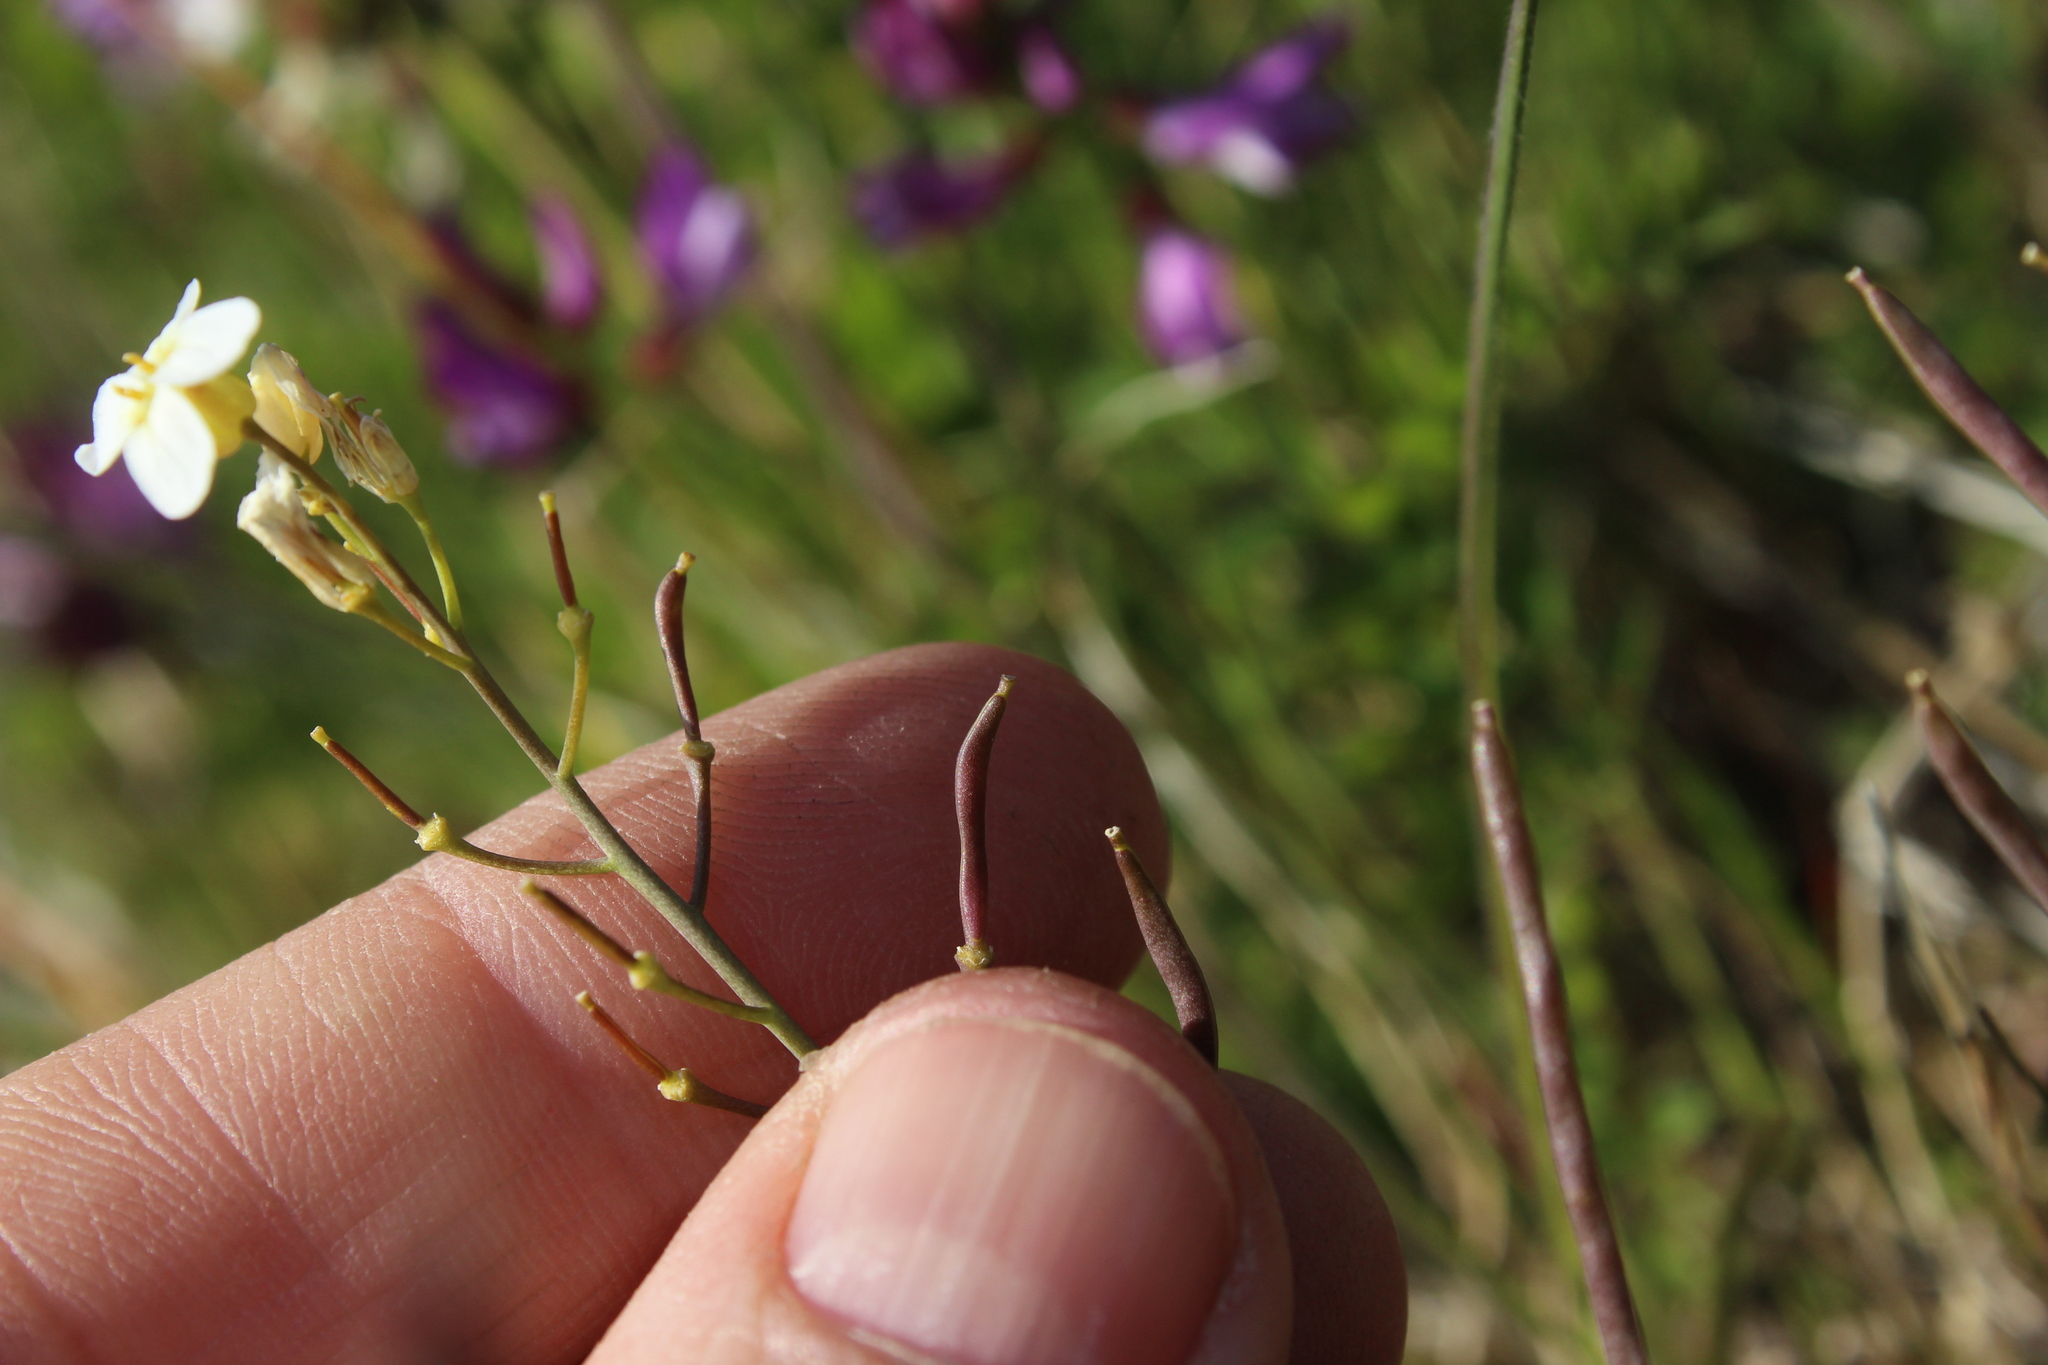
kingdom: Plantae
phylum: Tracheophyta
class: Magnoliopsida
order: Brassicales
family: Brassicaceae
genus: Arabidopsis
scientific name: Arabidopsis lyrata
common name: Lyrate rockcress
